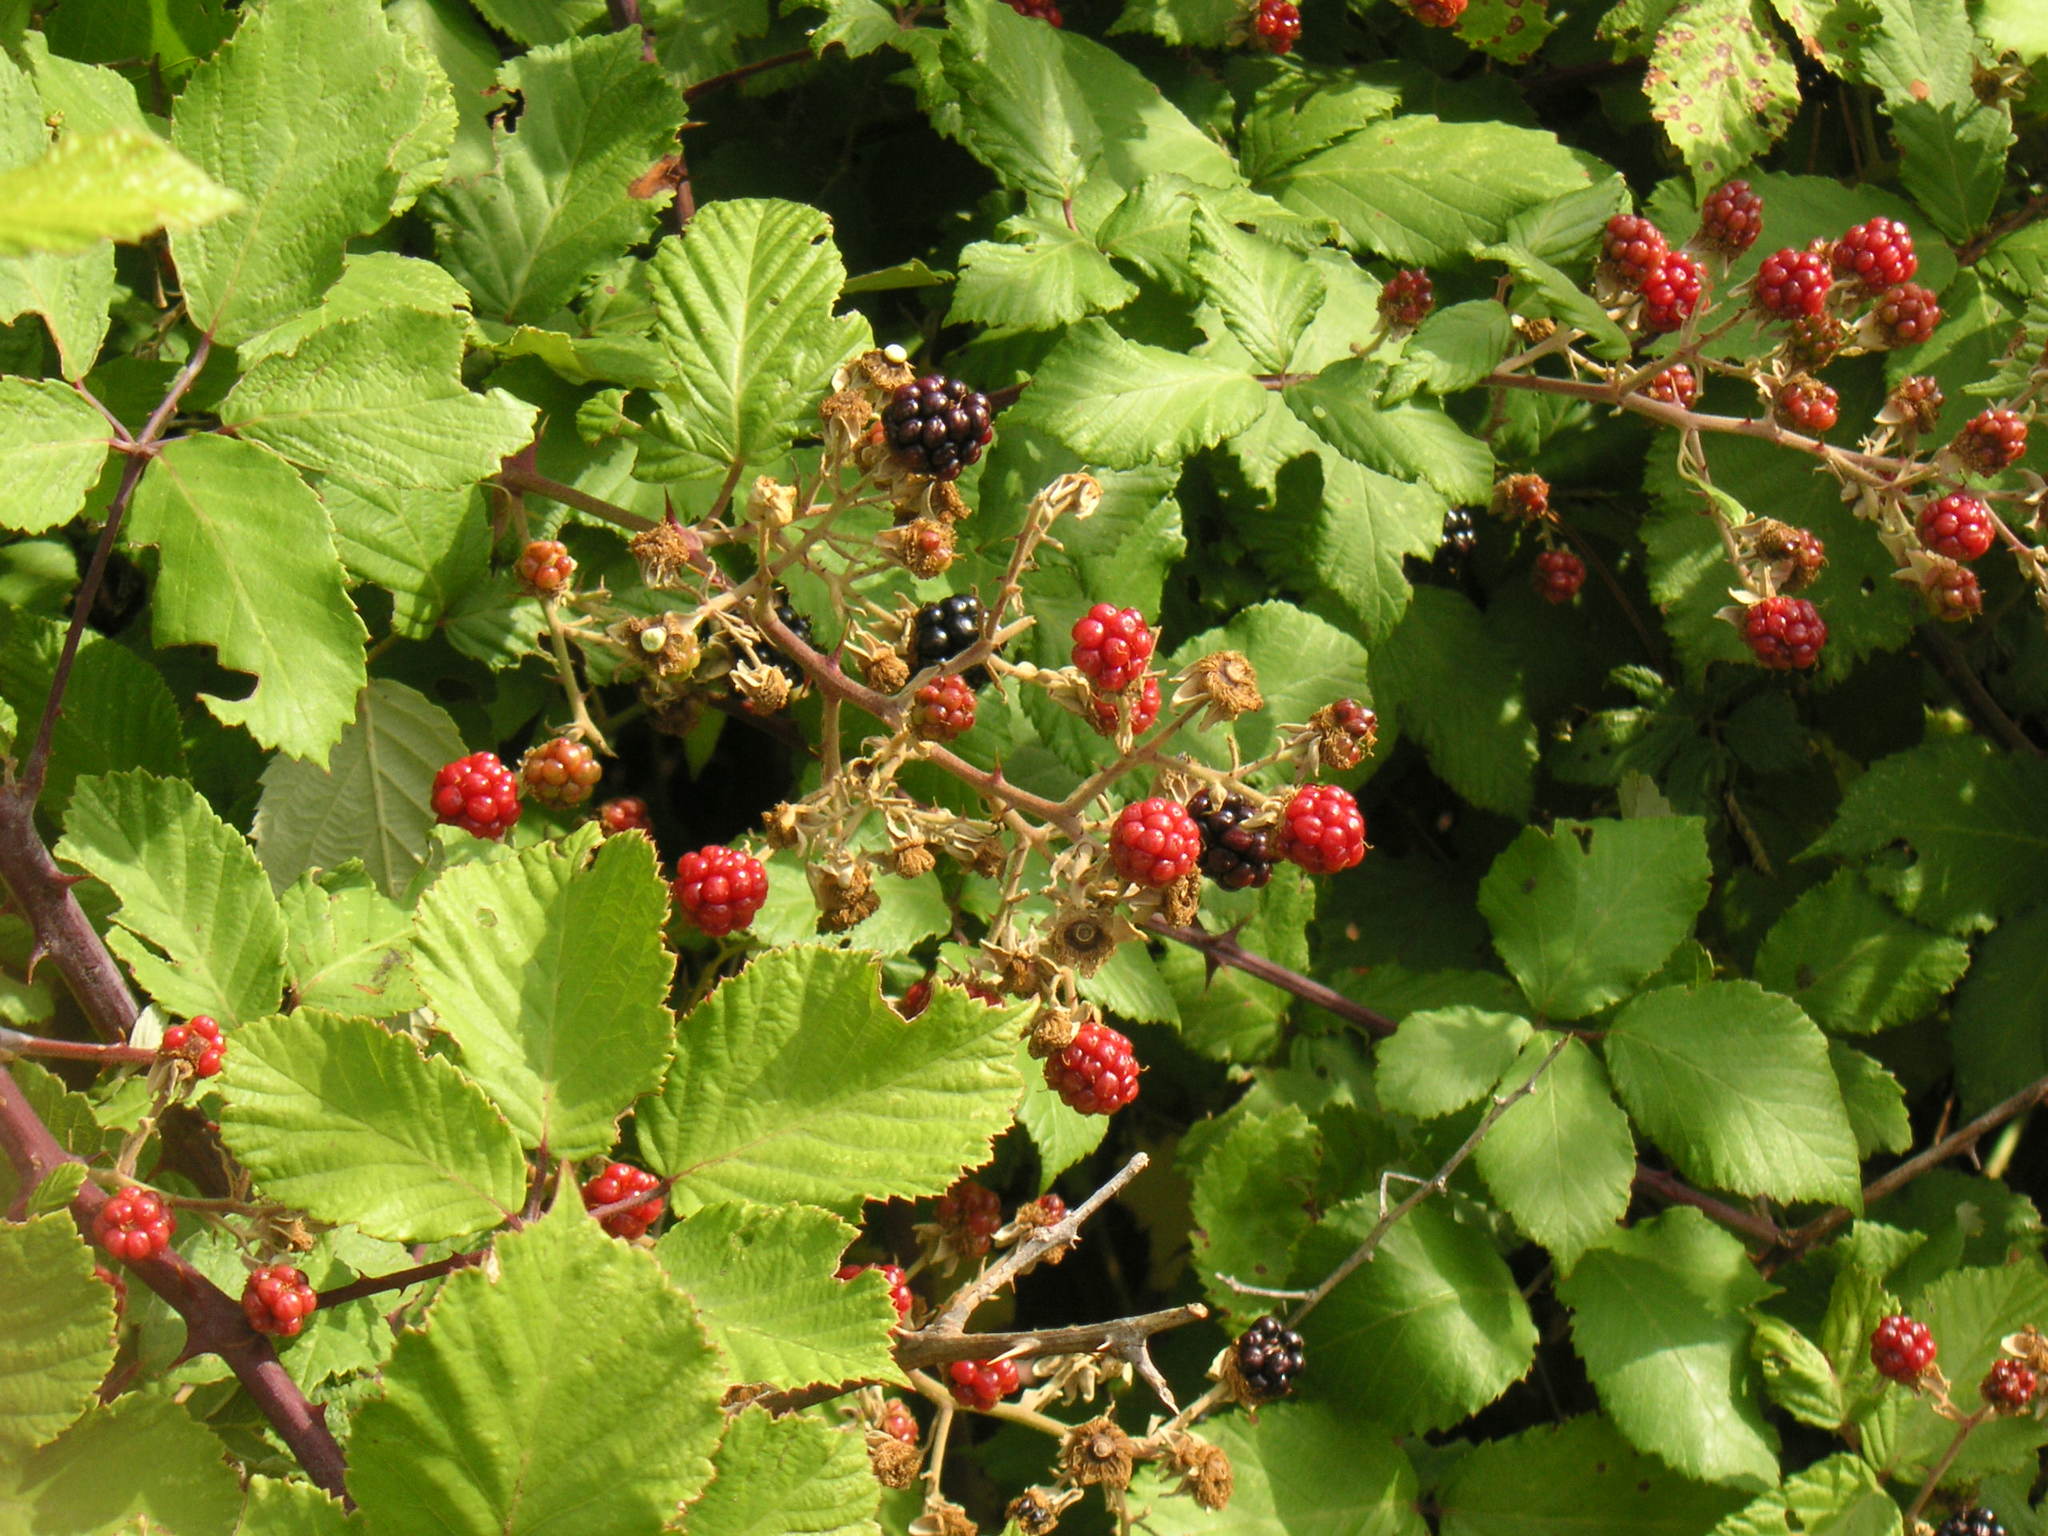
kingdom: Plantae
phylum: Tracheophyta
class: Magnoliopsida
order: Rosales
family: Rosaceae
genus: Rubus
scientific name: Rubus ulmifolius
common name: Elmleaf blackberry
